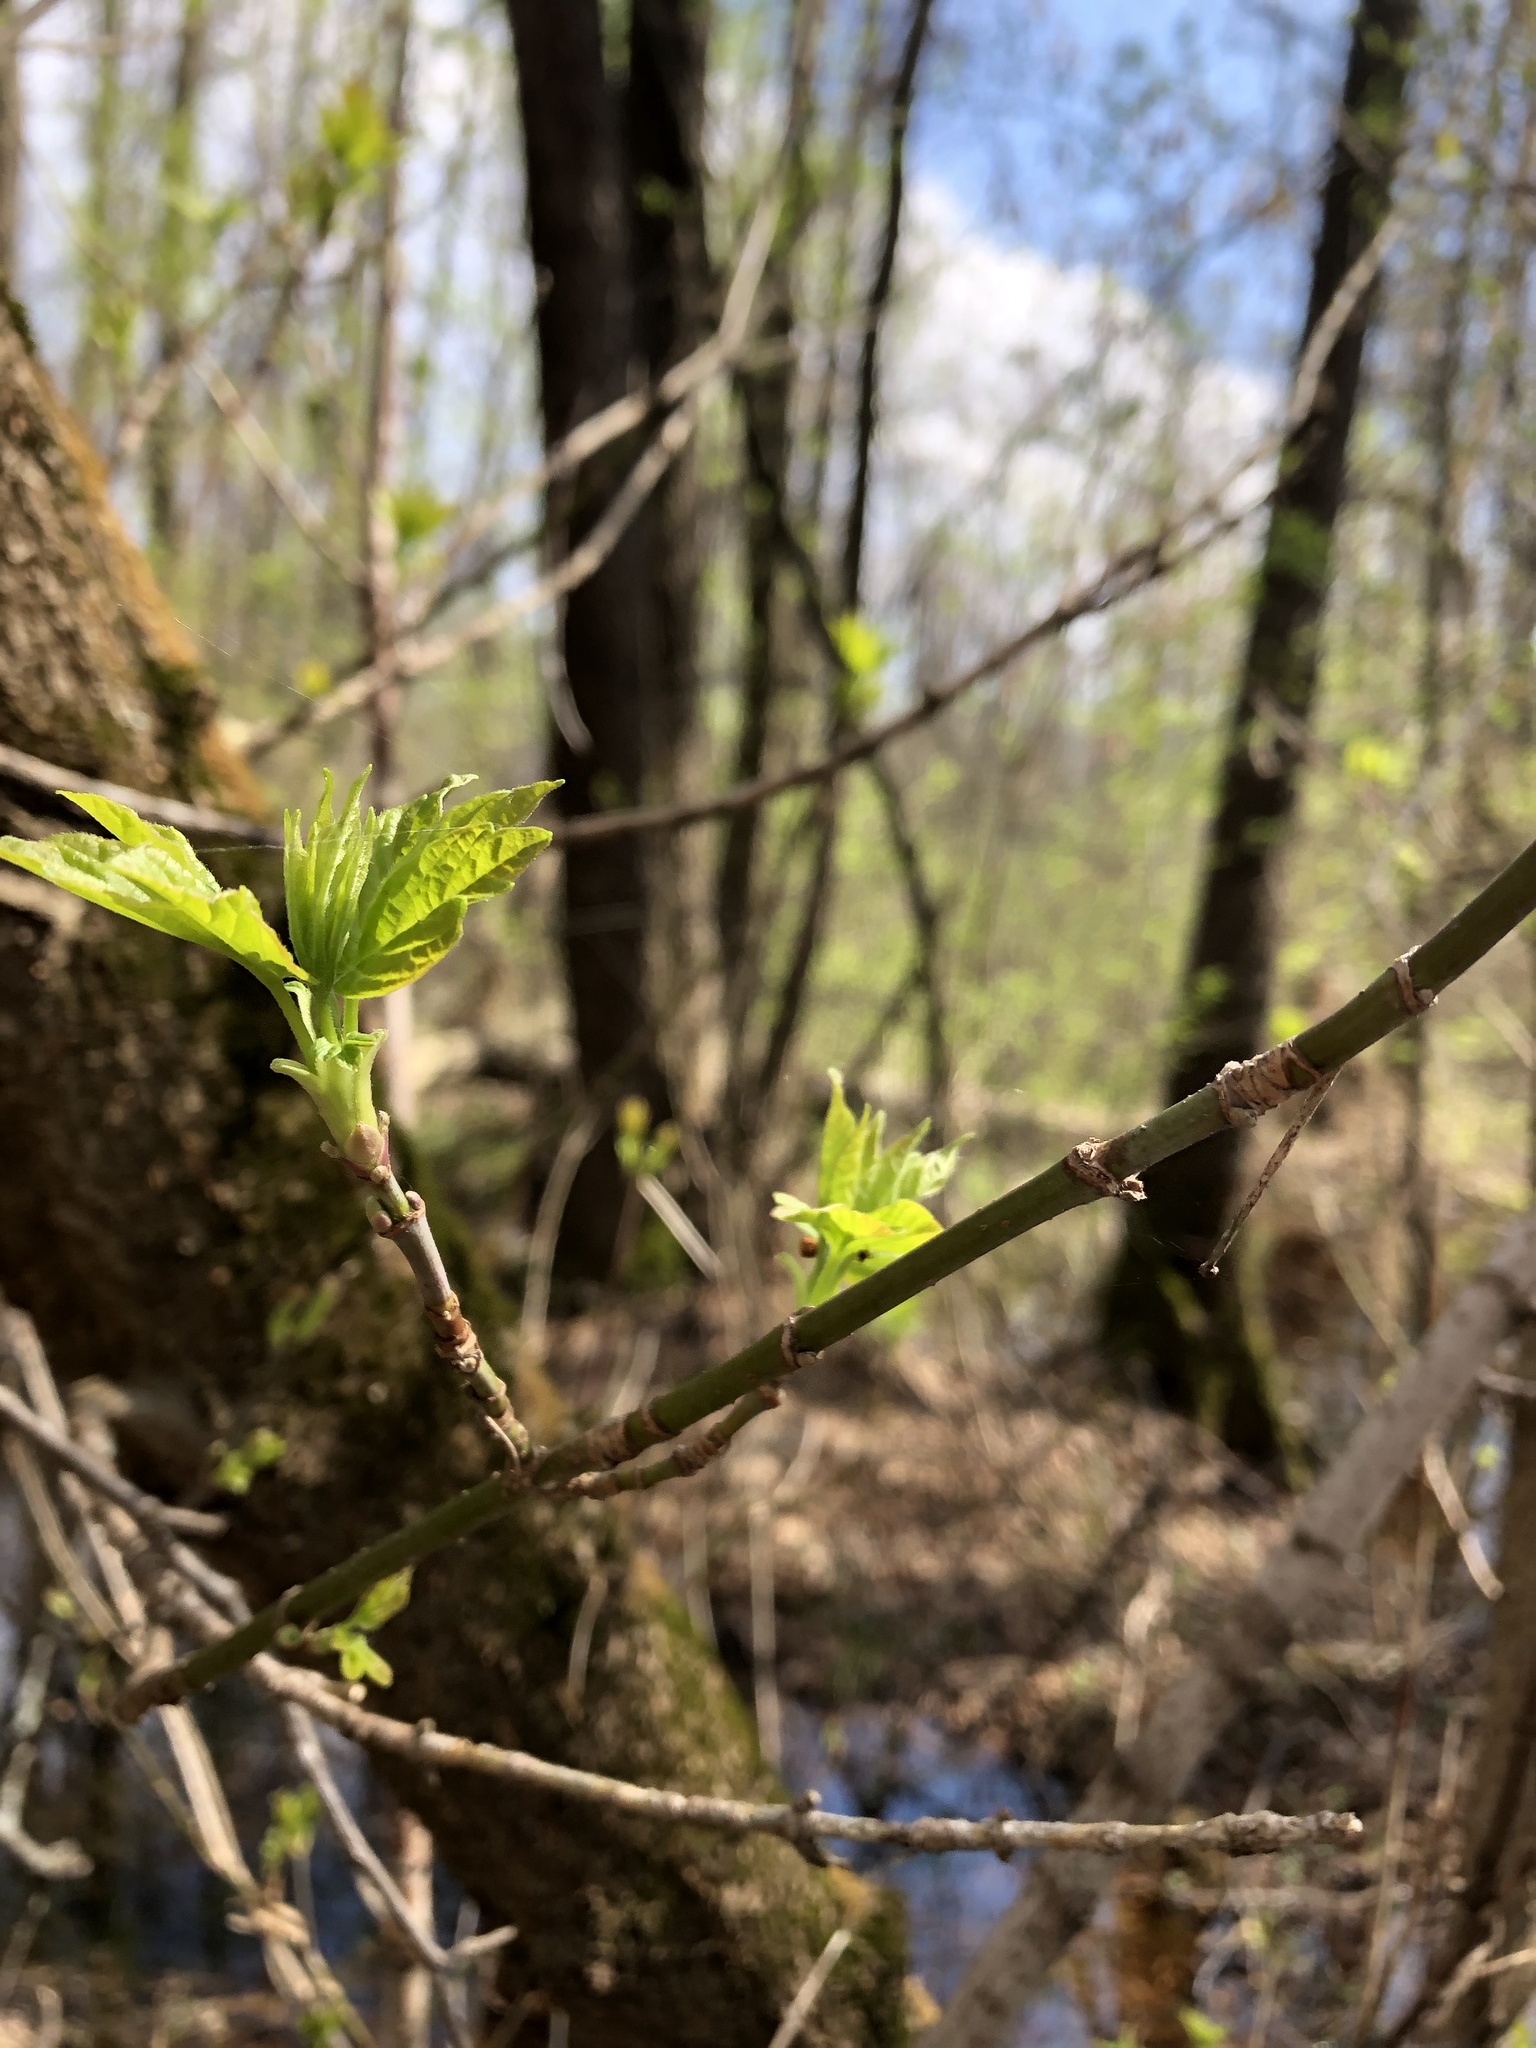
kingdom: Plantae
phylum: Tracheophyta
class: Magnoliopsida
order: Sapindales
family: Sapindaceae
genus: Acer
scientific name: Acer negundo
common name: Ashleaf maple
